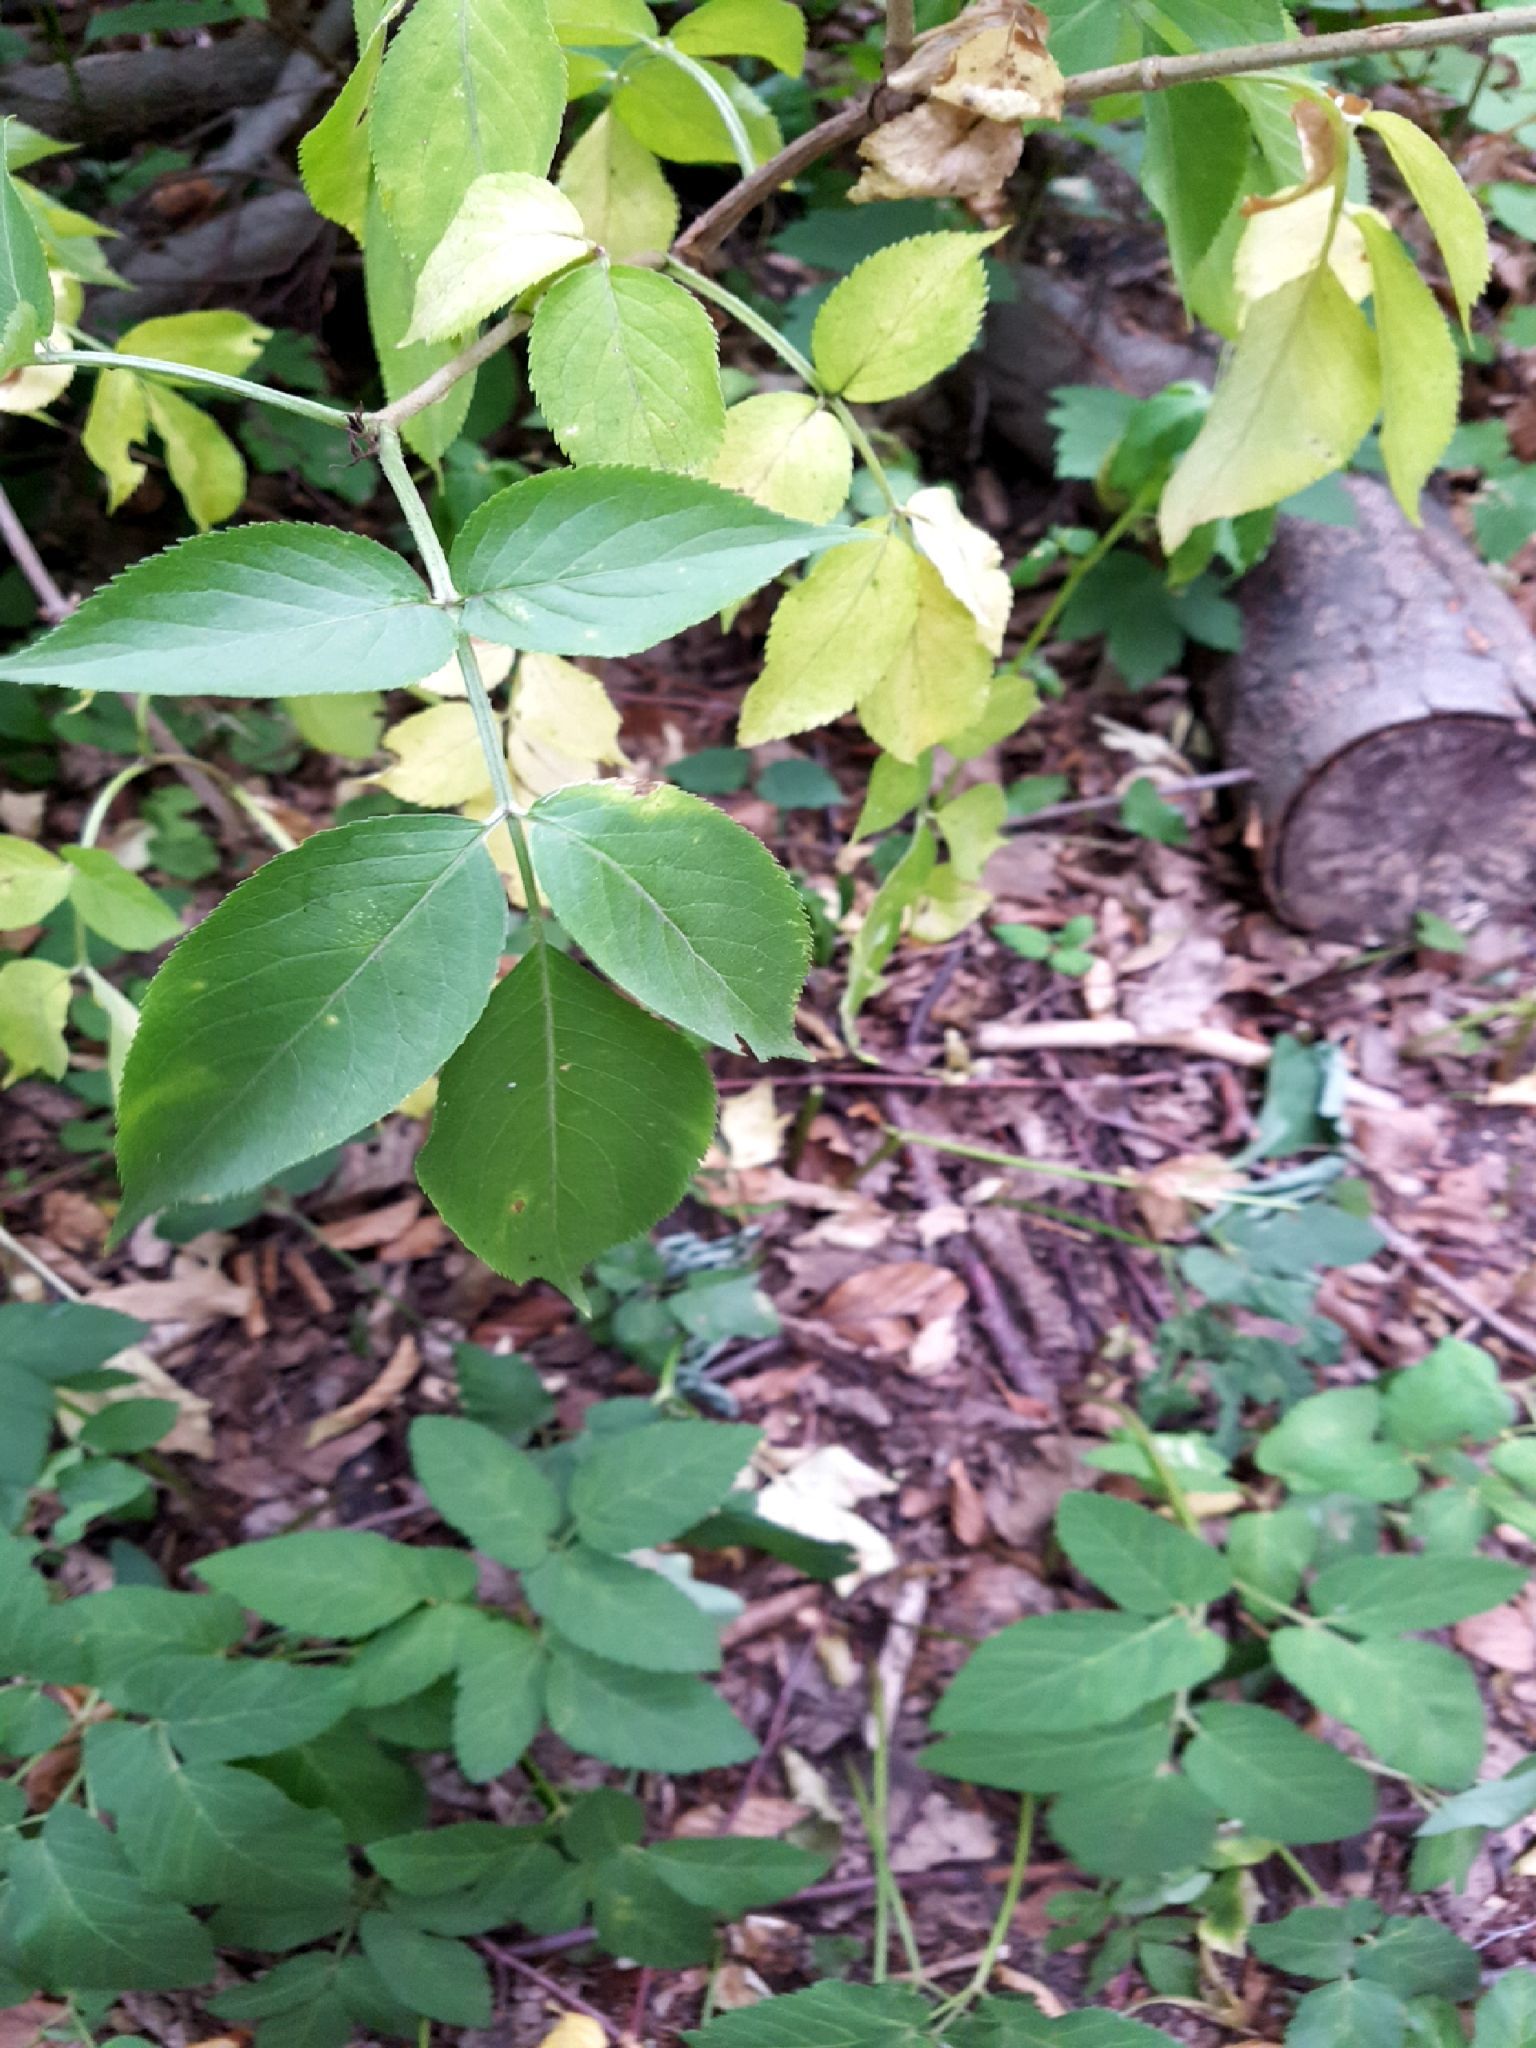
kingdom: Plantae
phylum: Tracheophyta
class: Magnoliopsida
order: Dipsacales
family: Viburnaceae
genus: Sambucus
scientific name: Sambucus nigra
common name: Elder
